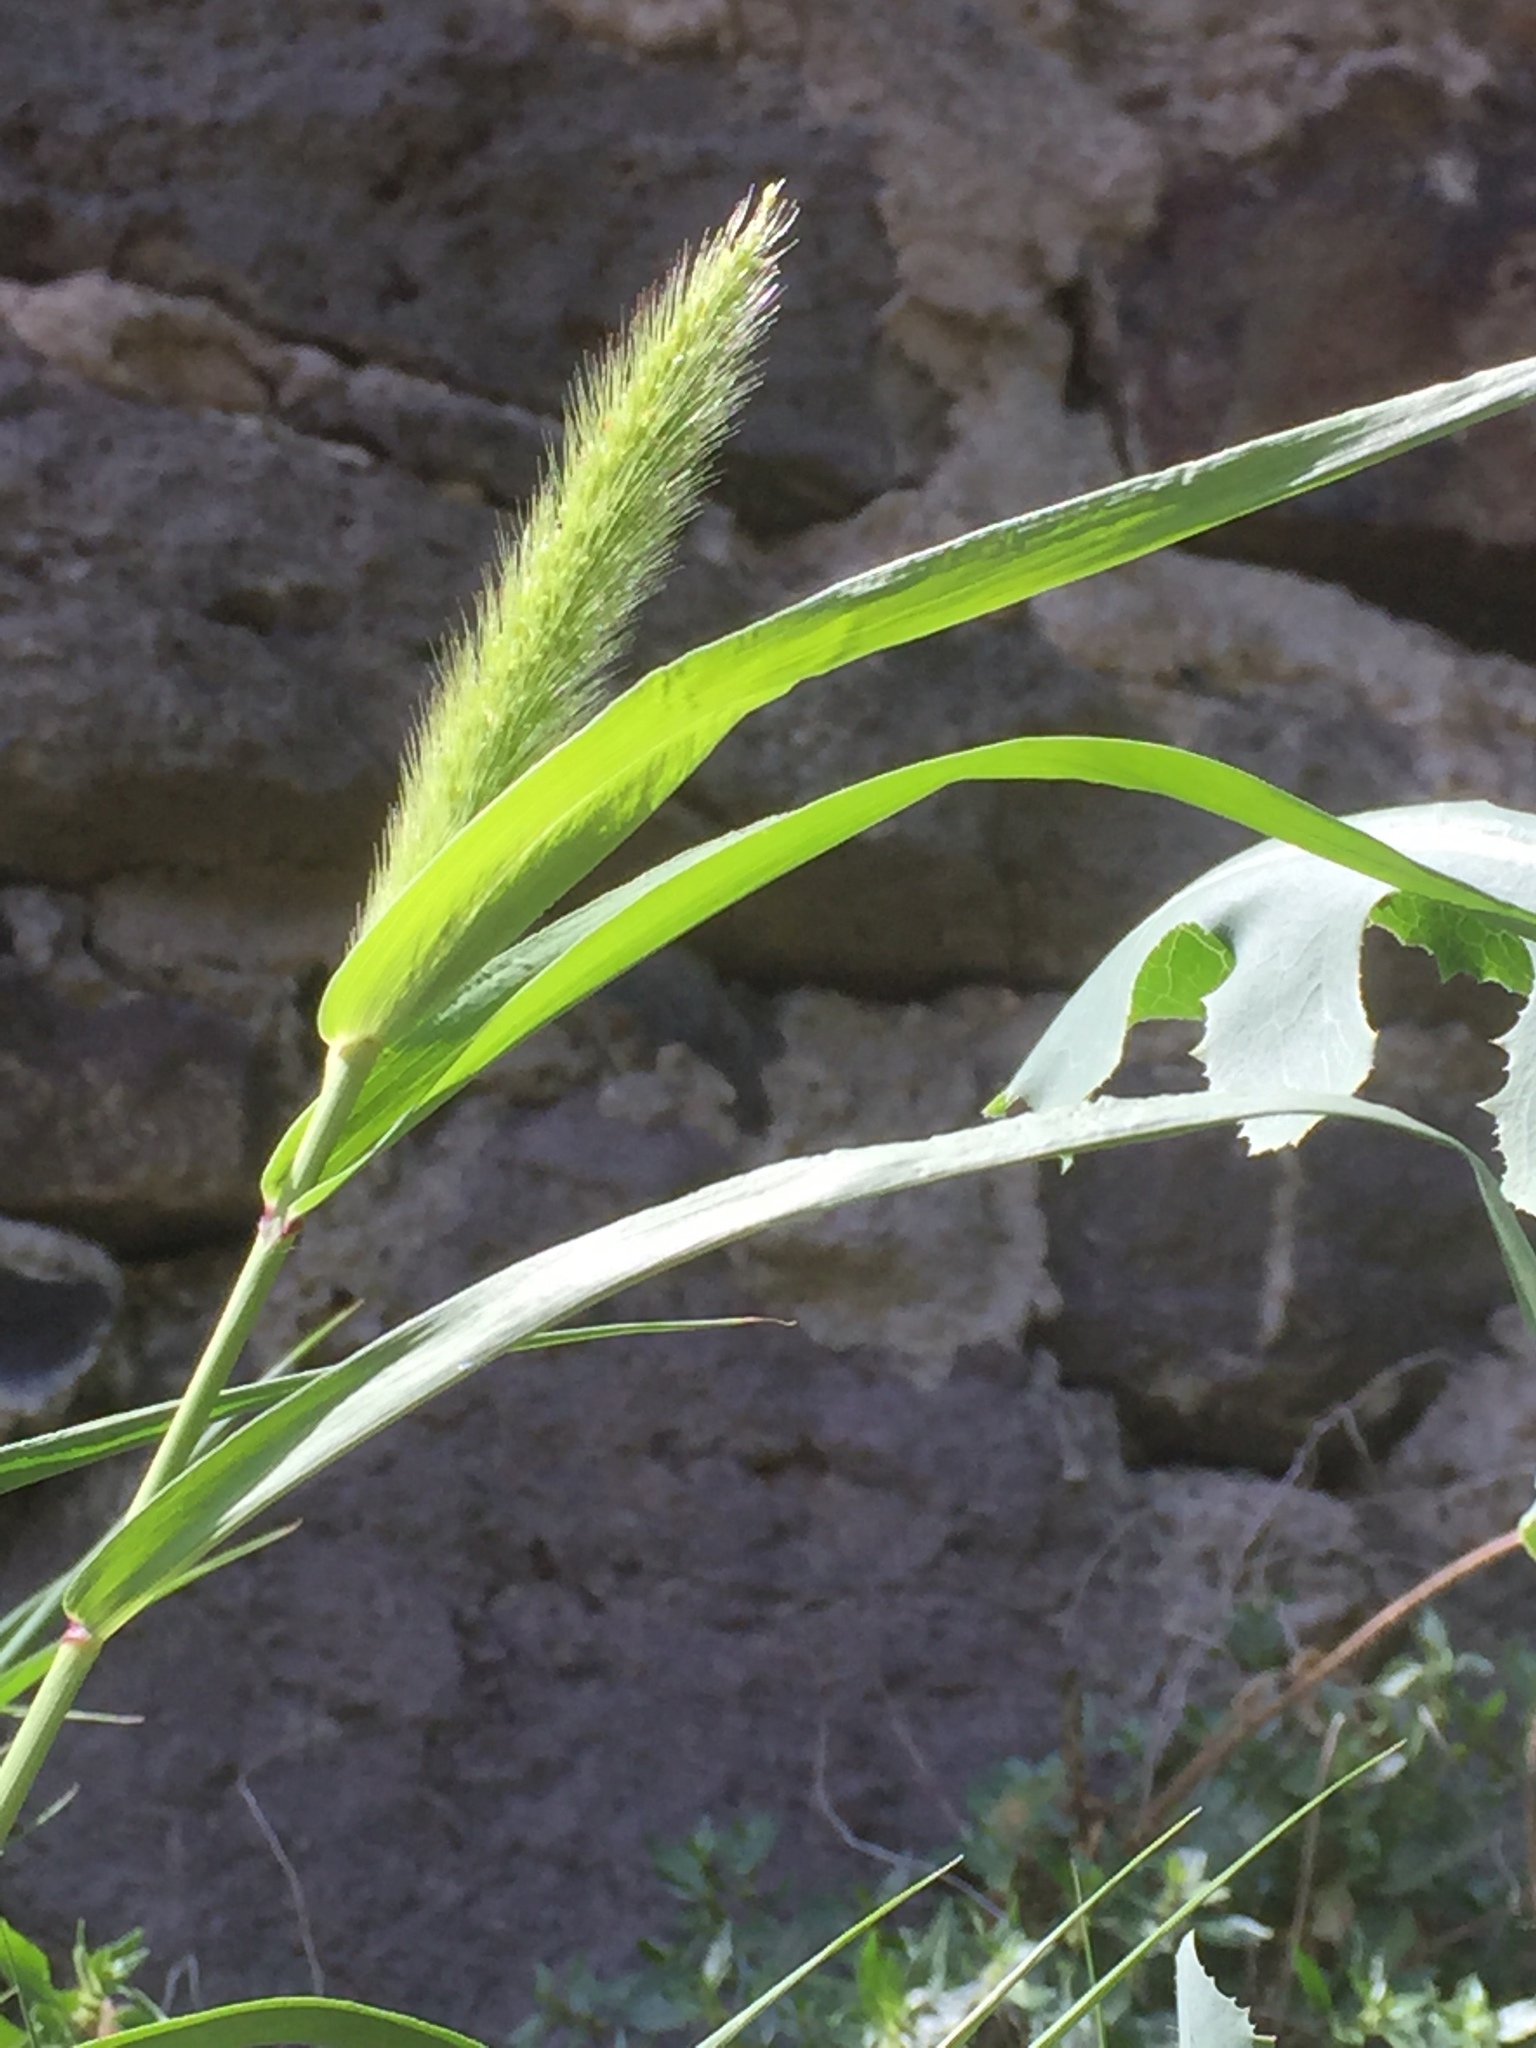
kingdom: Plantae
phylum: Tracheophyta
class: Liliopsida
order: Poales
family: Poaceae
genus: Setaria
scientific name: Setaria viridis
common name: Green bristlegrass
